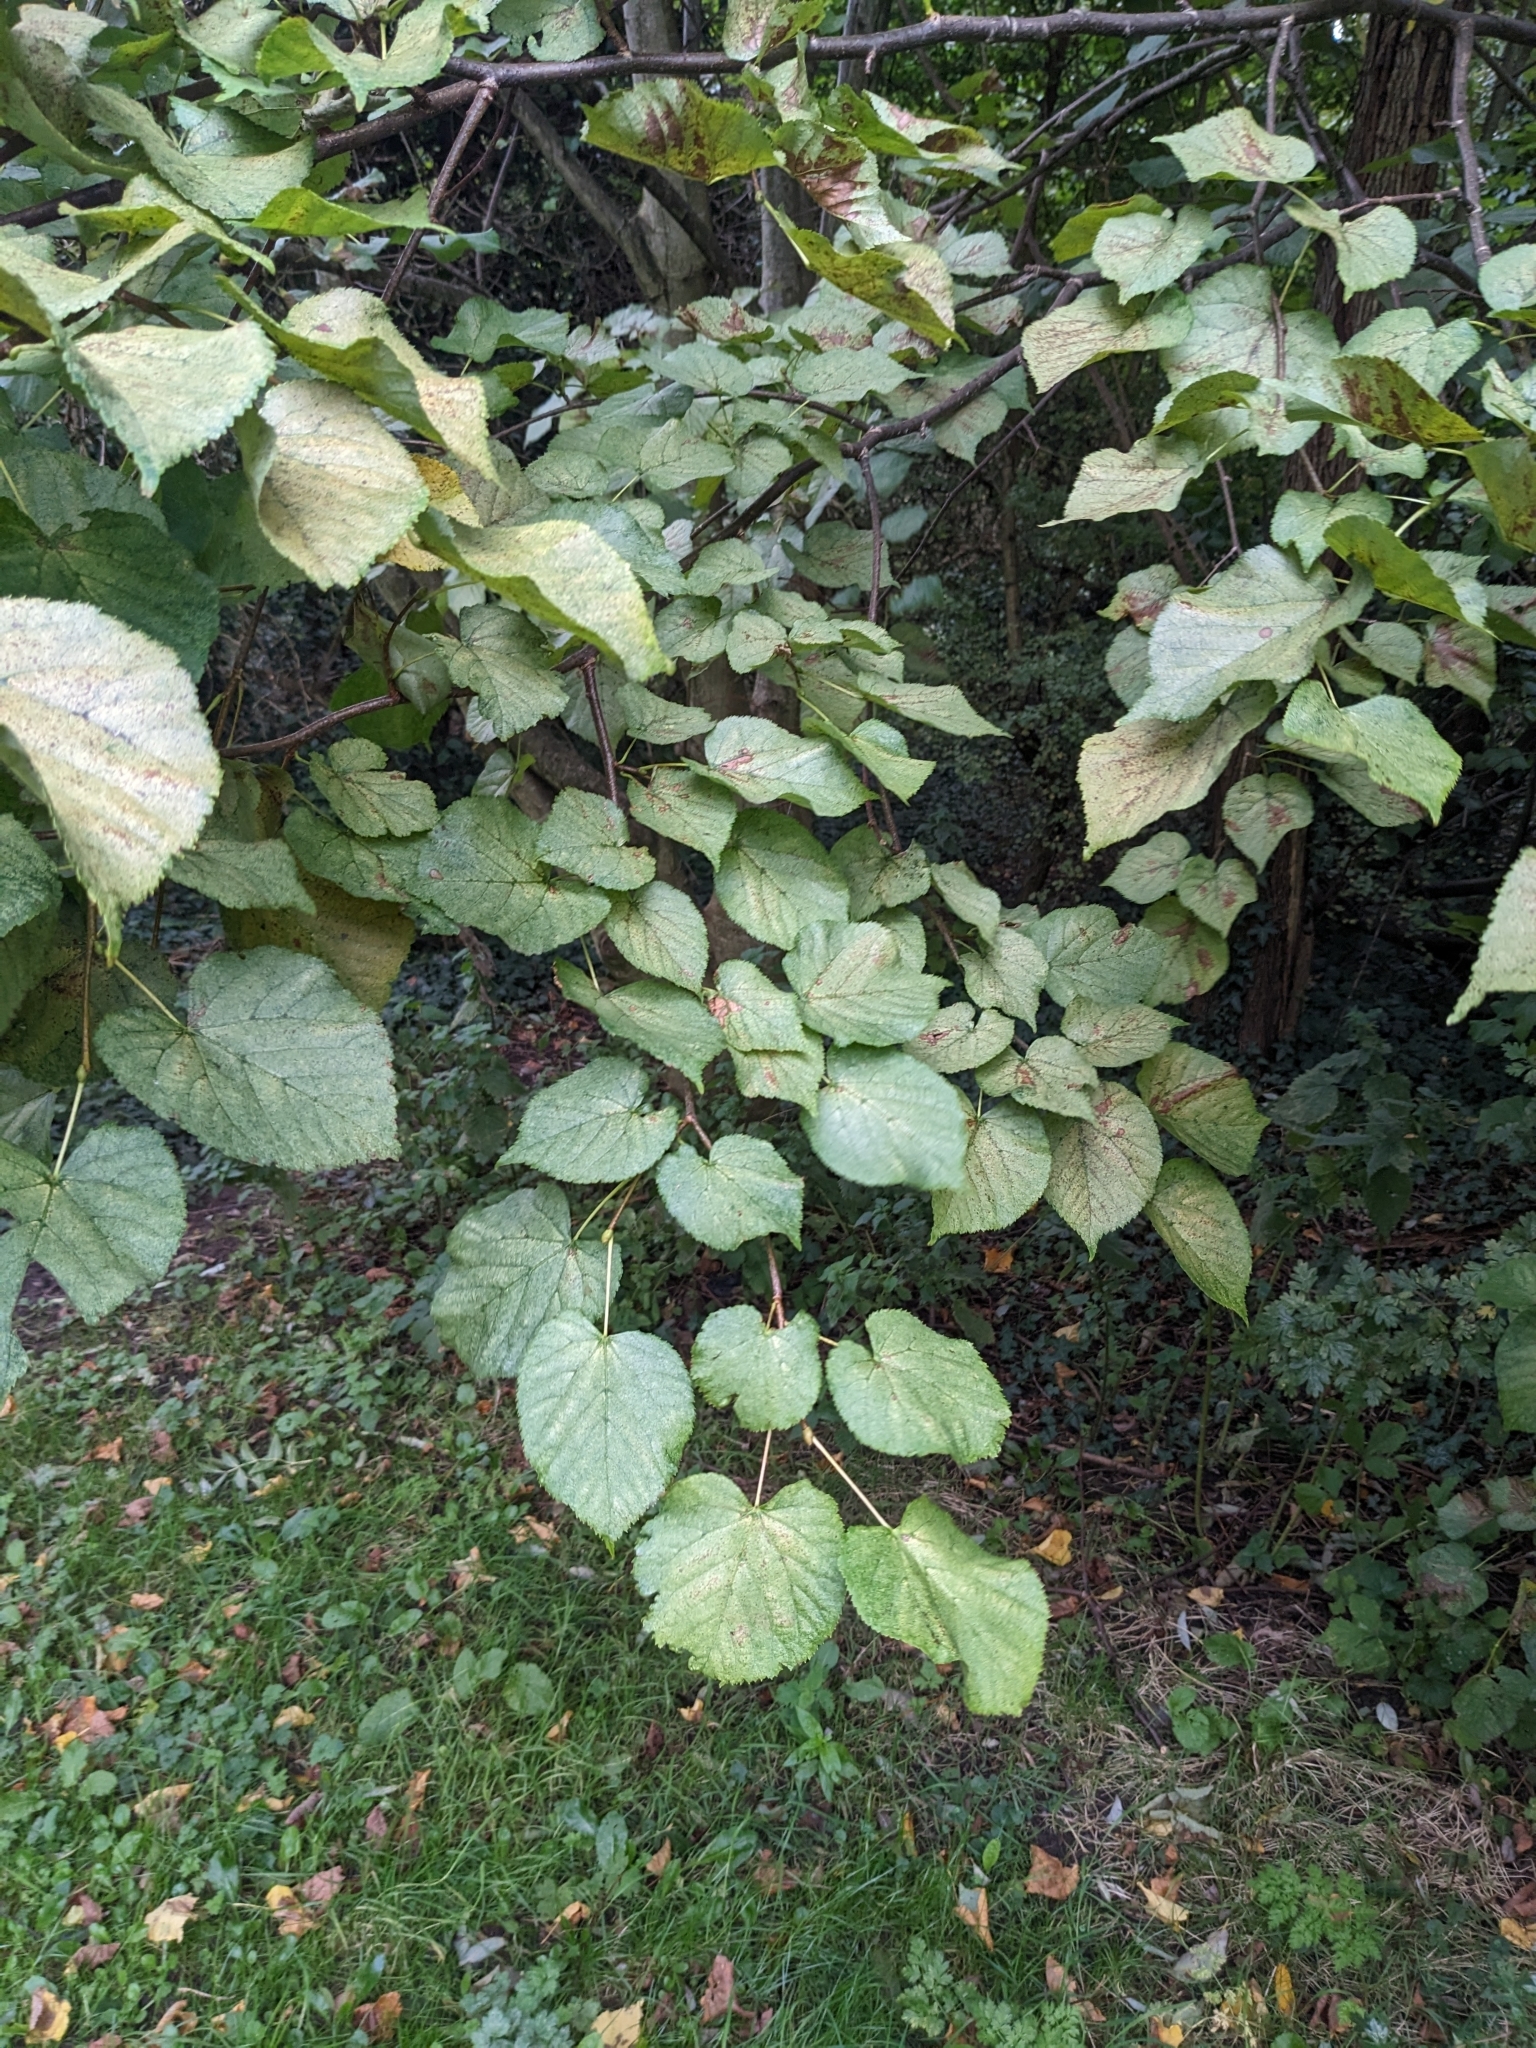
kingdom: Plantae
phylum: Tracheophyta
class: Magnoliopsida
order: Malvales
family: Malvaceae
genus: Tilia
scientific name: Tilia europaea
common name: European linden
